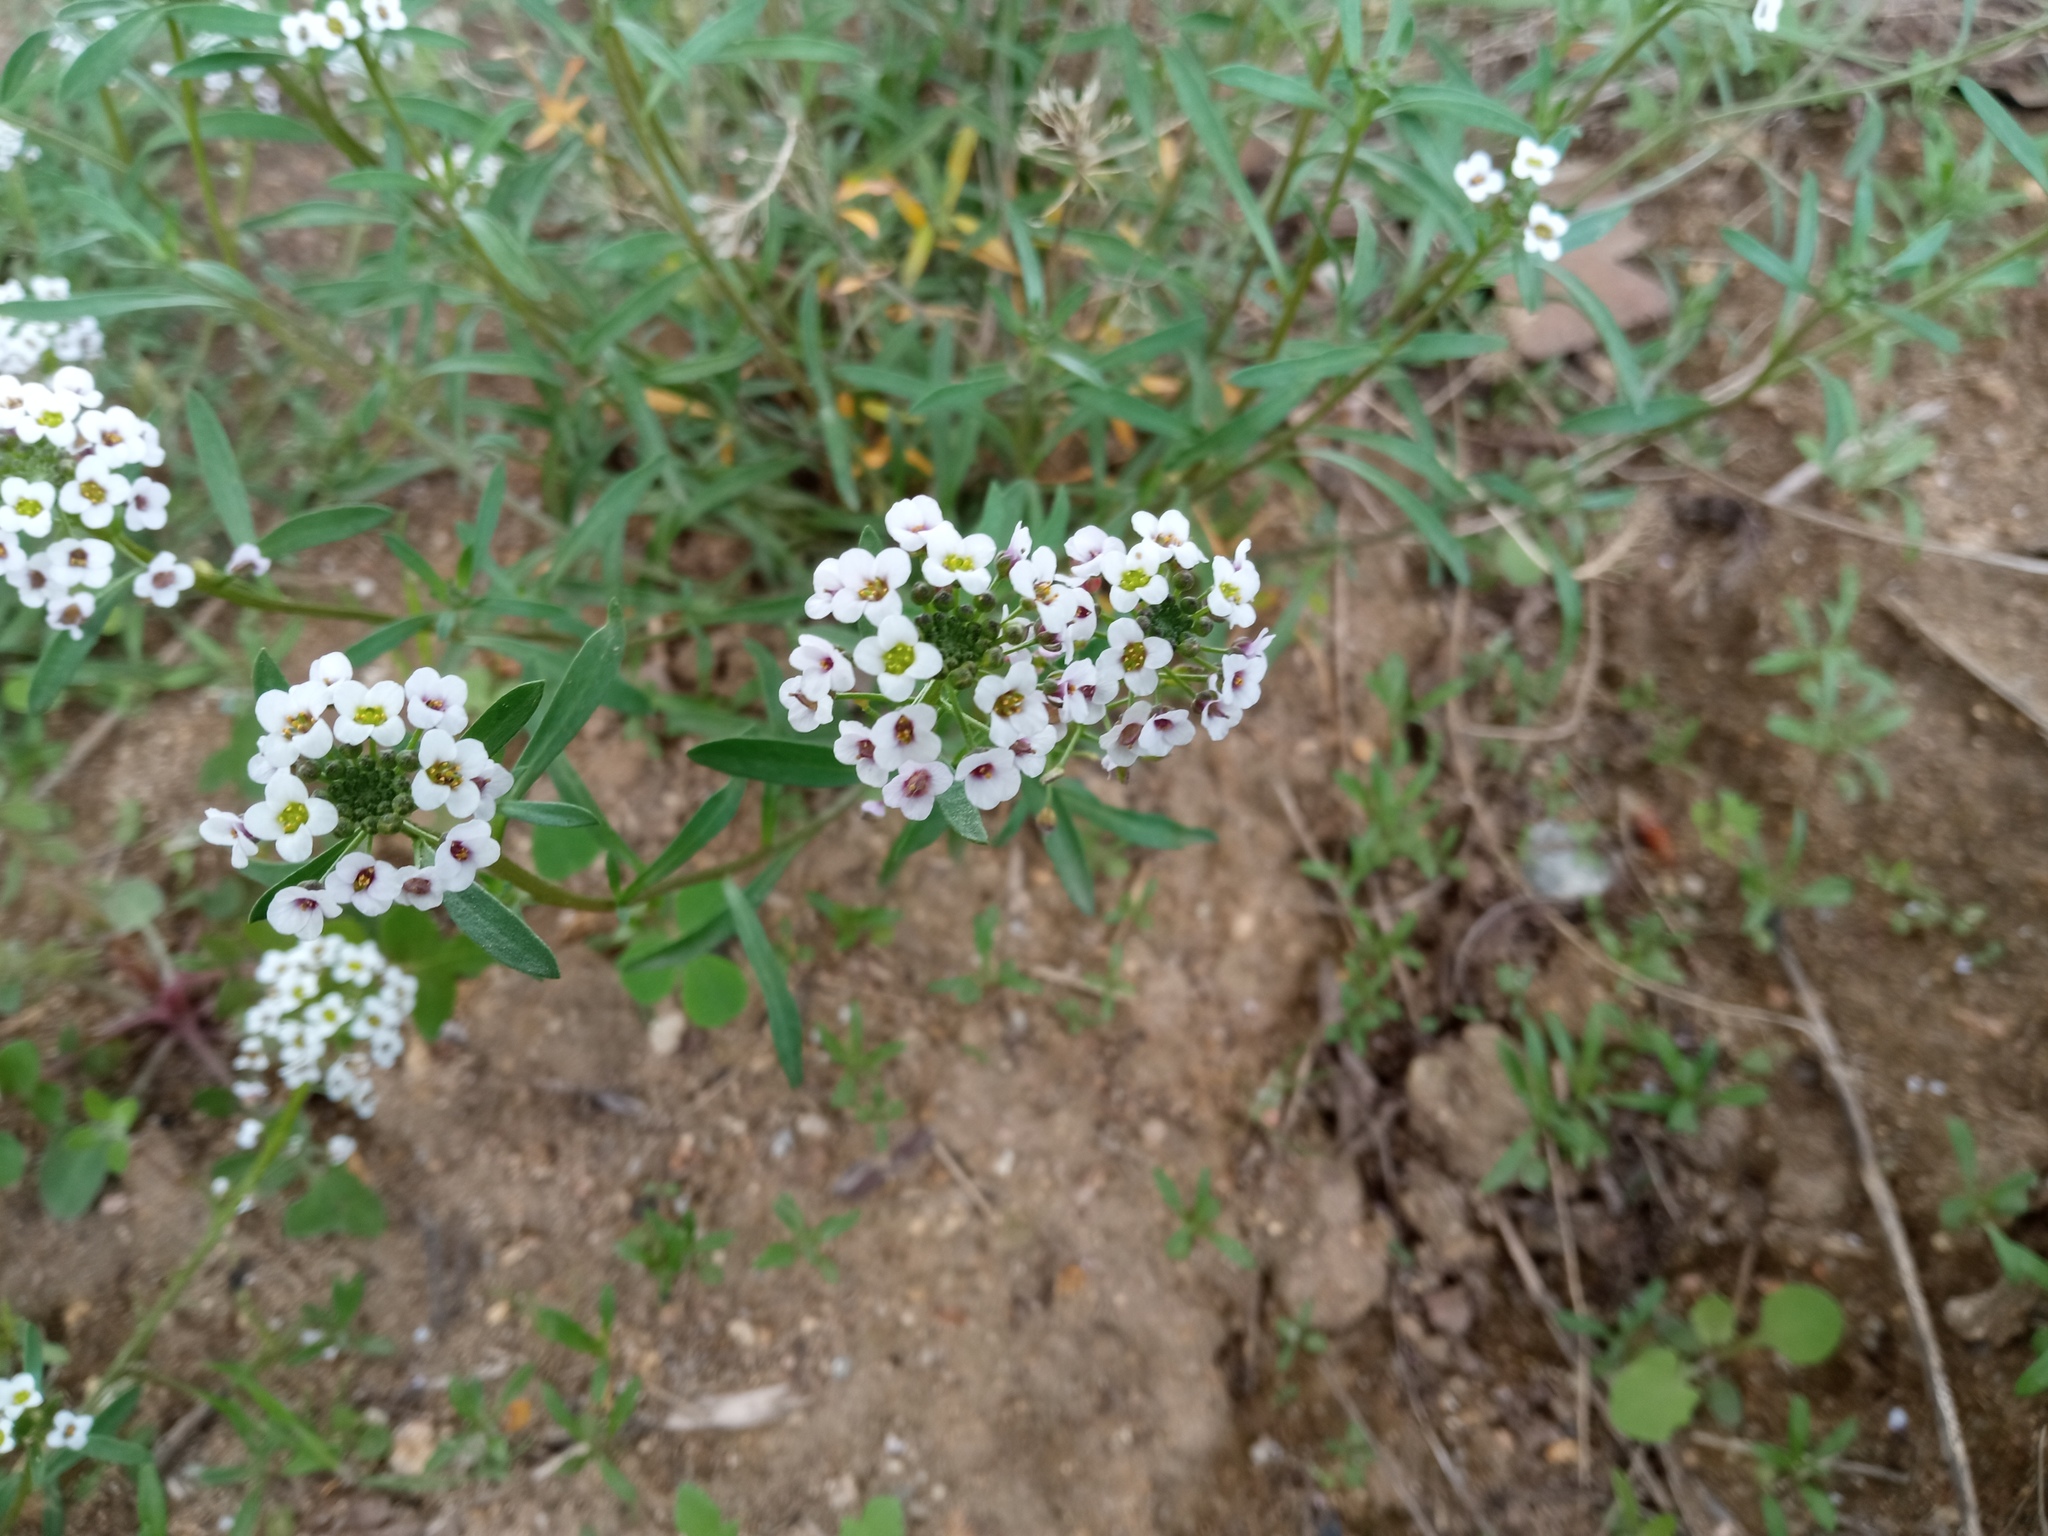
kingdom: Plantae
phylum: Tracheophyta
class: Magnoliopsida
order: Brassicales
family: Brassicaceae
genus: Lobularia
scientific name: Lobularia maritima
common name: Sweet alison
